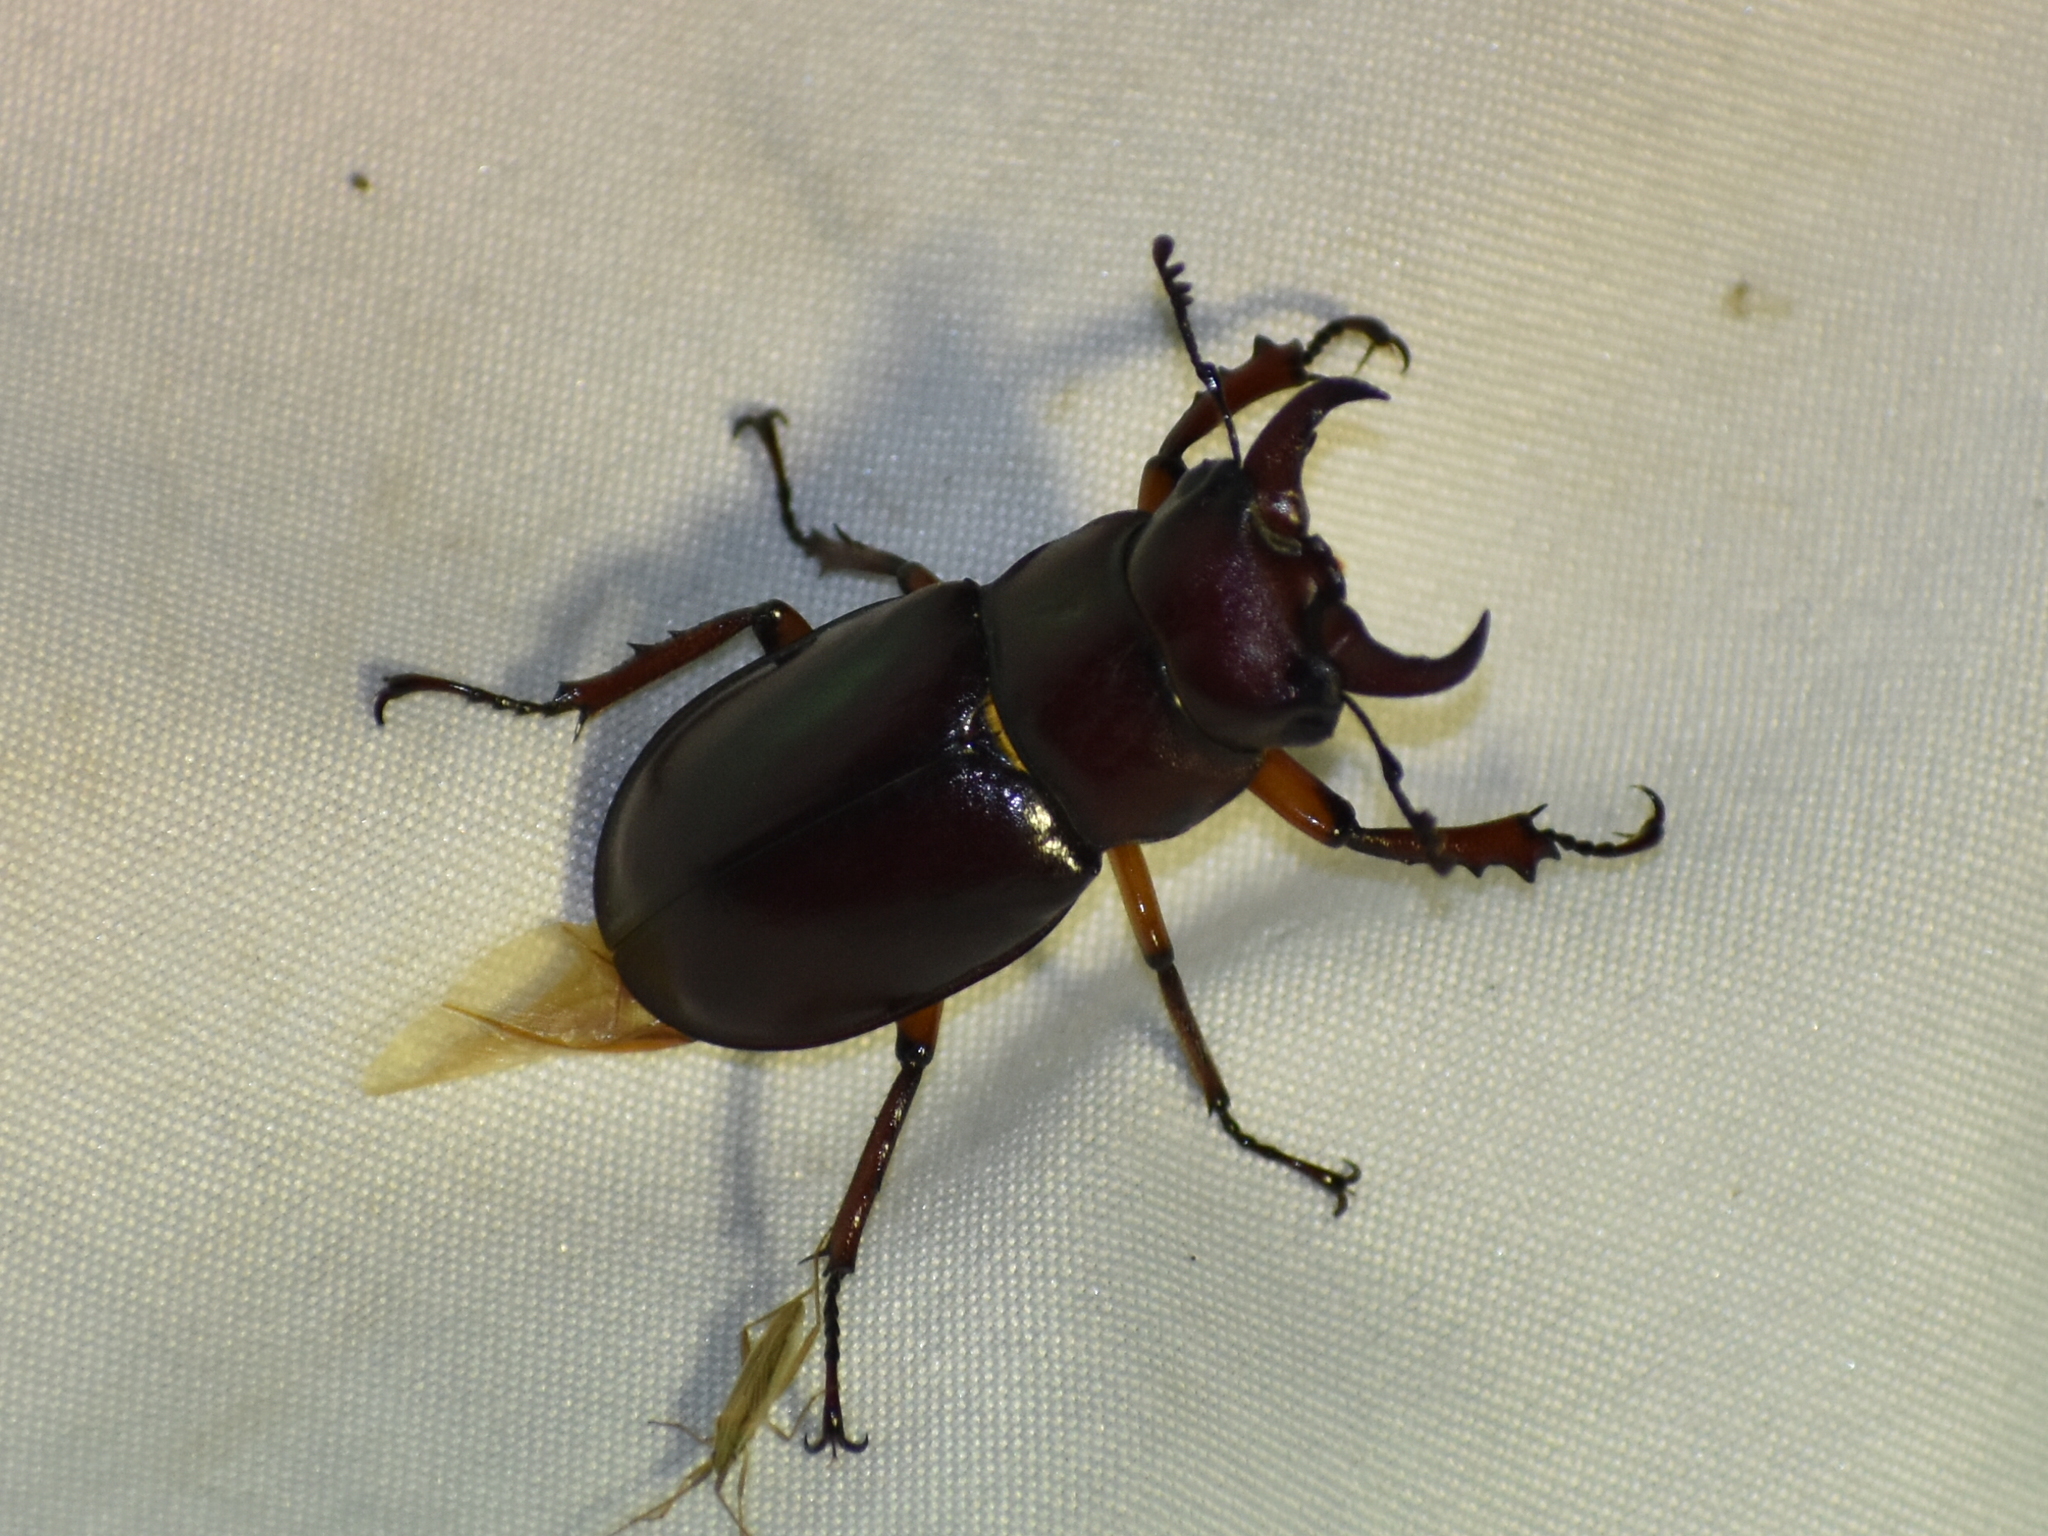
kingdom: Animalia
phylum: Arthropoda
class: Insecta
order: Coleoptera
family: Lucanidae
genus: Lucanus
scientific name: Lucanus capreolus
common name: Stag beetle
